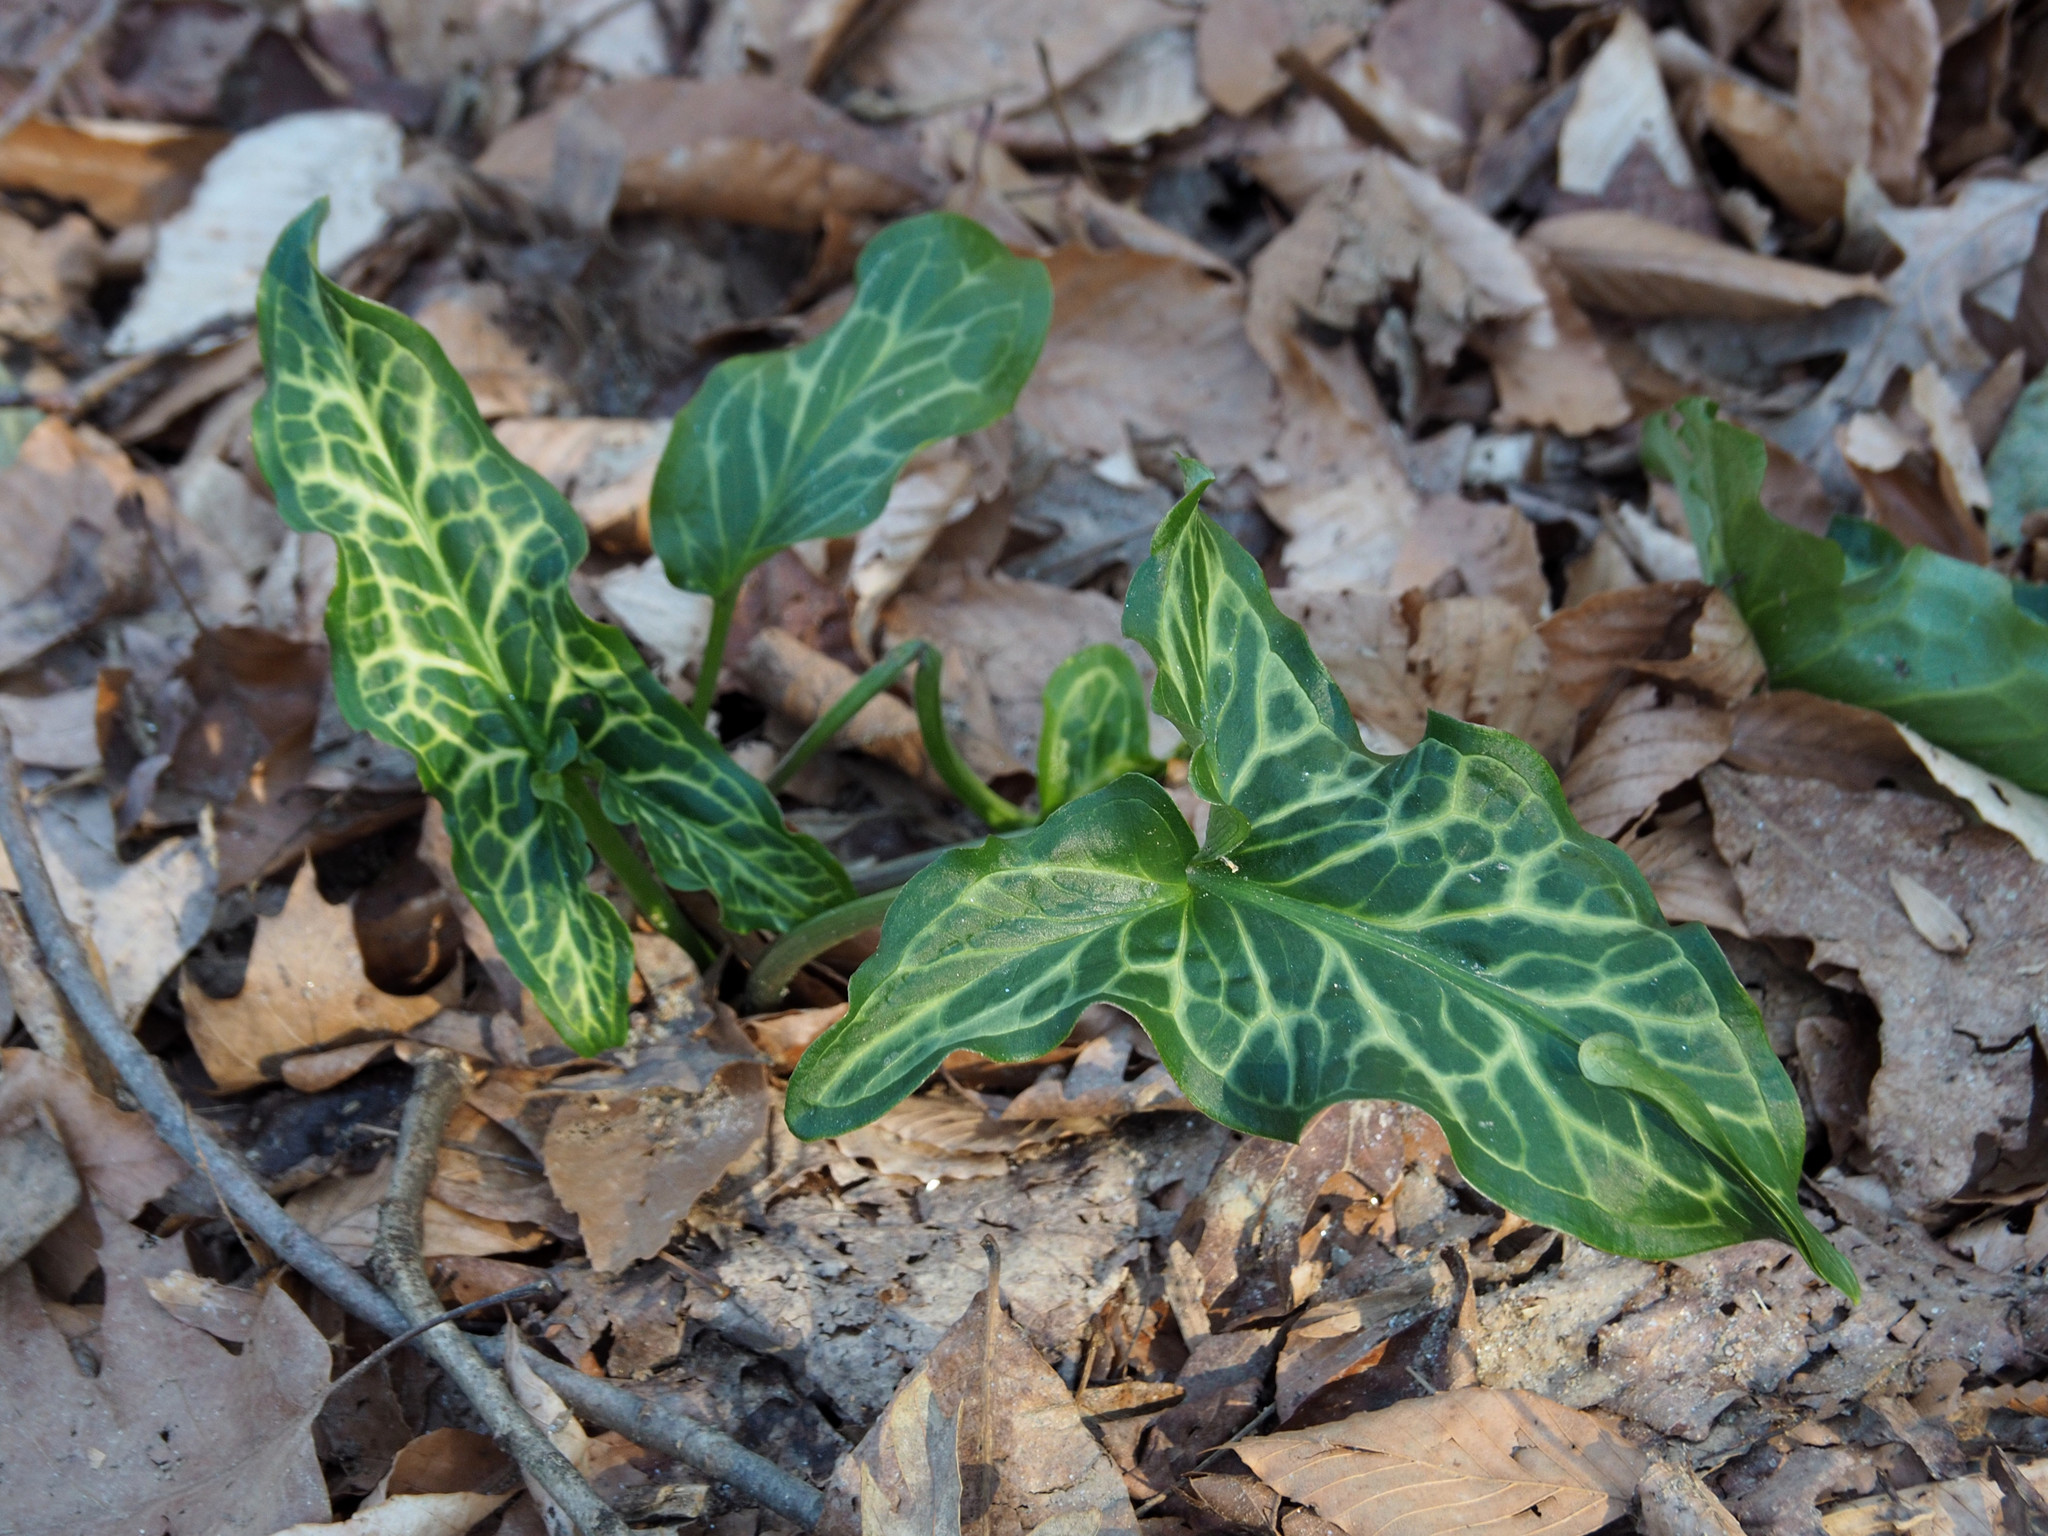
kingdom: Plantae
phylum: Tracheophyta
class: Liliopsida
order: Alismatales
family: Araceae
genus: Arum
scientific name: Arum italicum
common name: Italian lords-and-ladies
